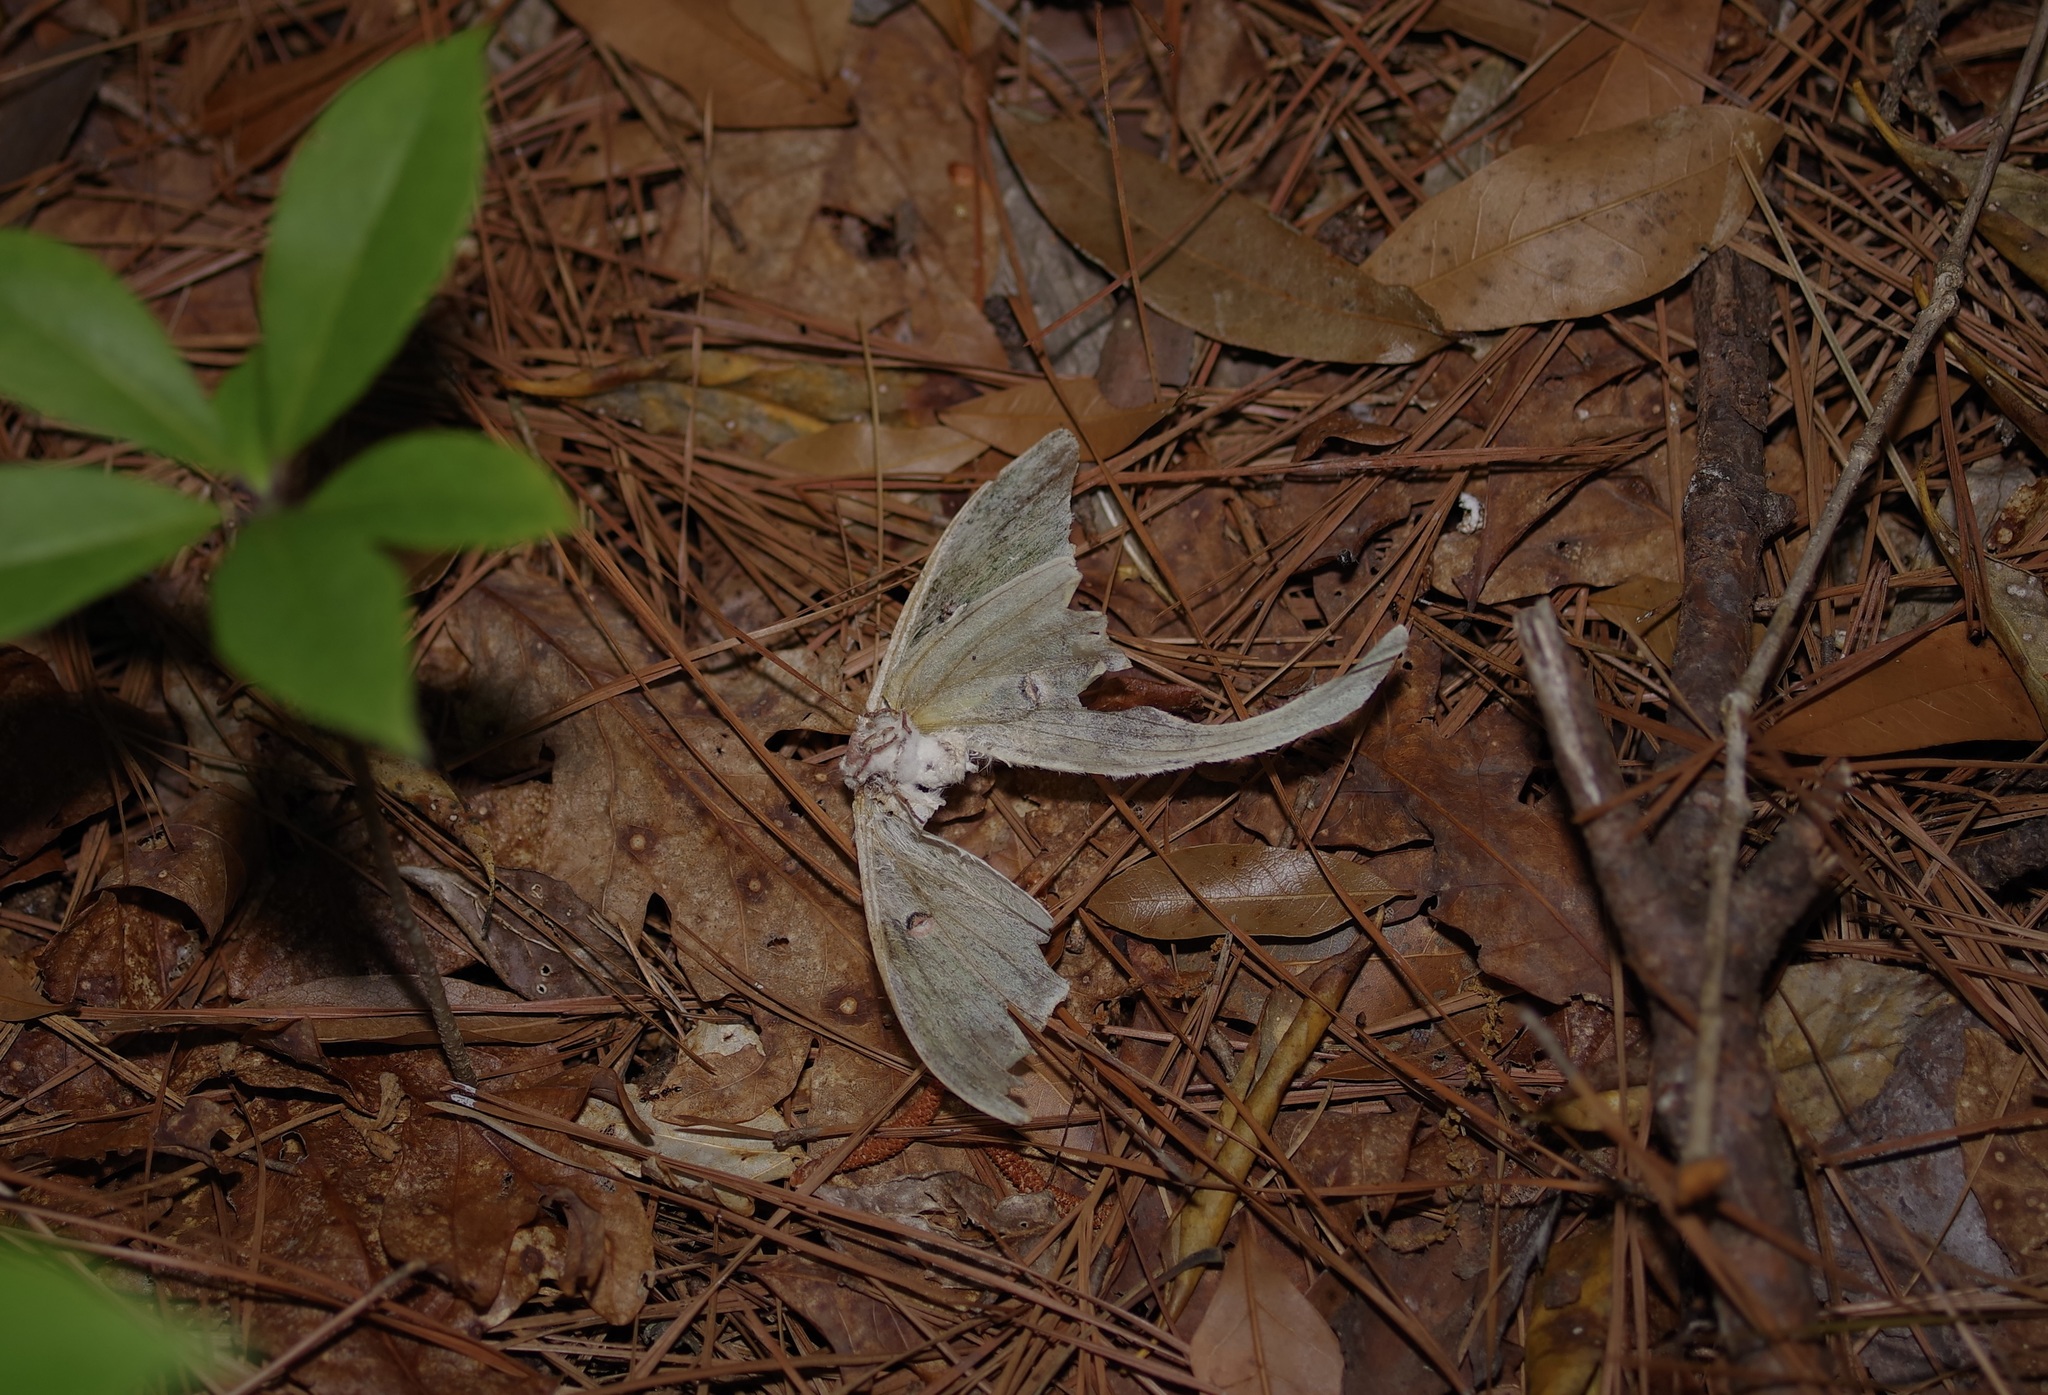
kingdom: Animalia
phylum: Arthropoda
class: Insecta
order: Lepidoptera
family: Saturniidae
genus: Actias
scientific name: Actias luna
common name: Luna moth
